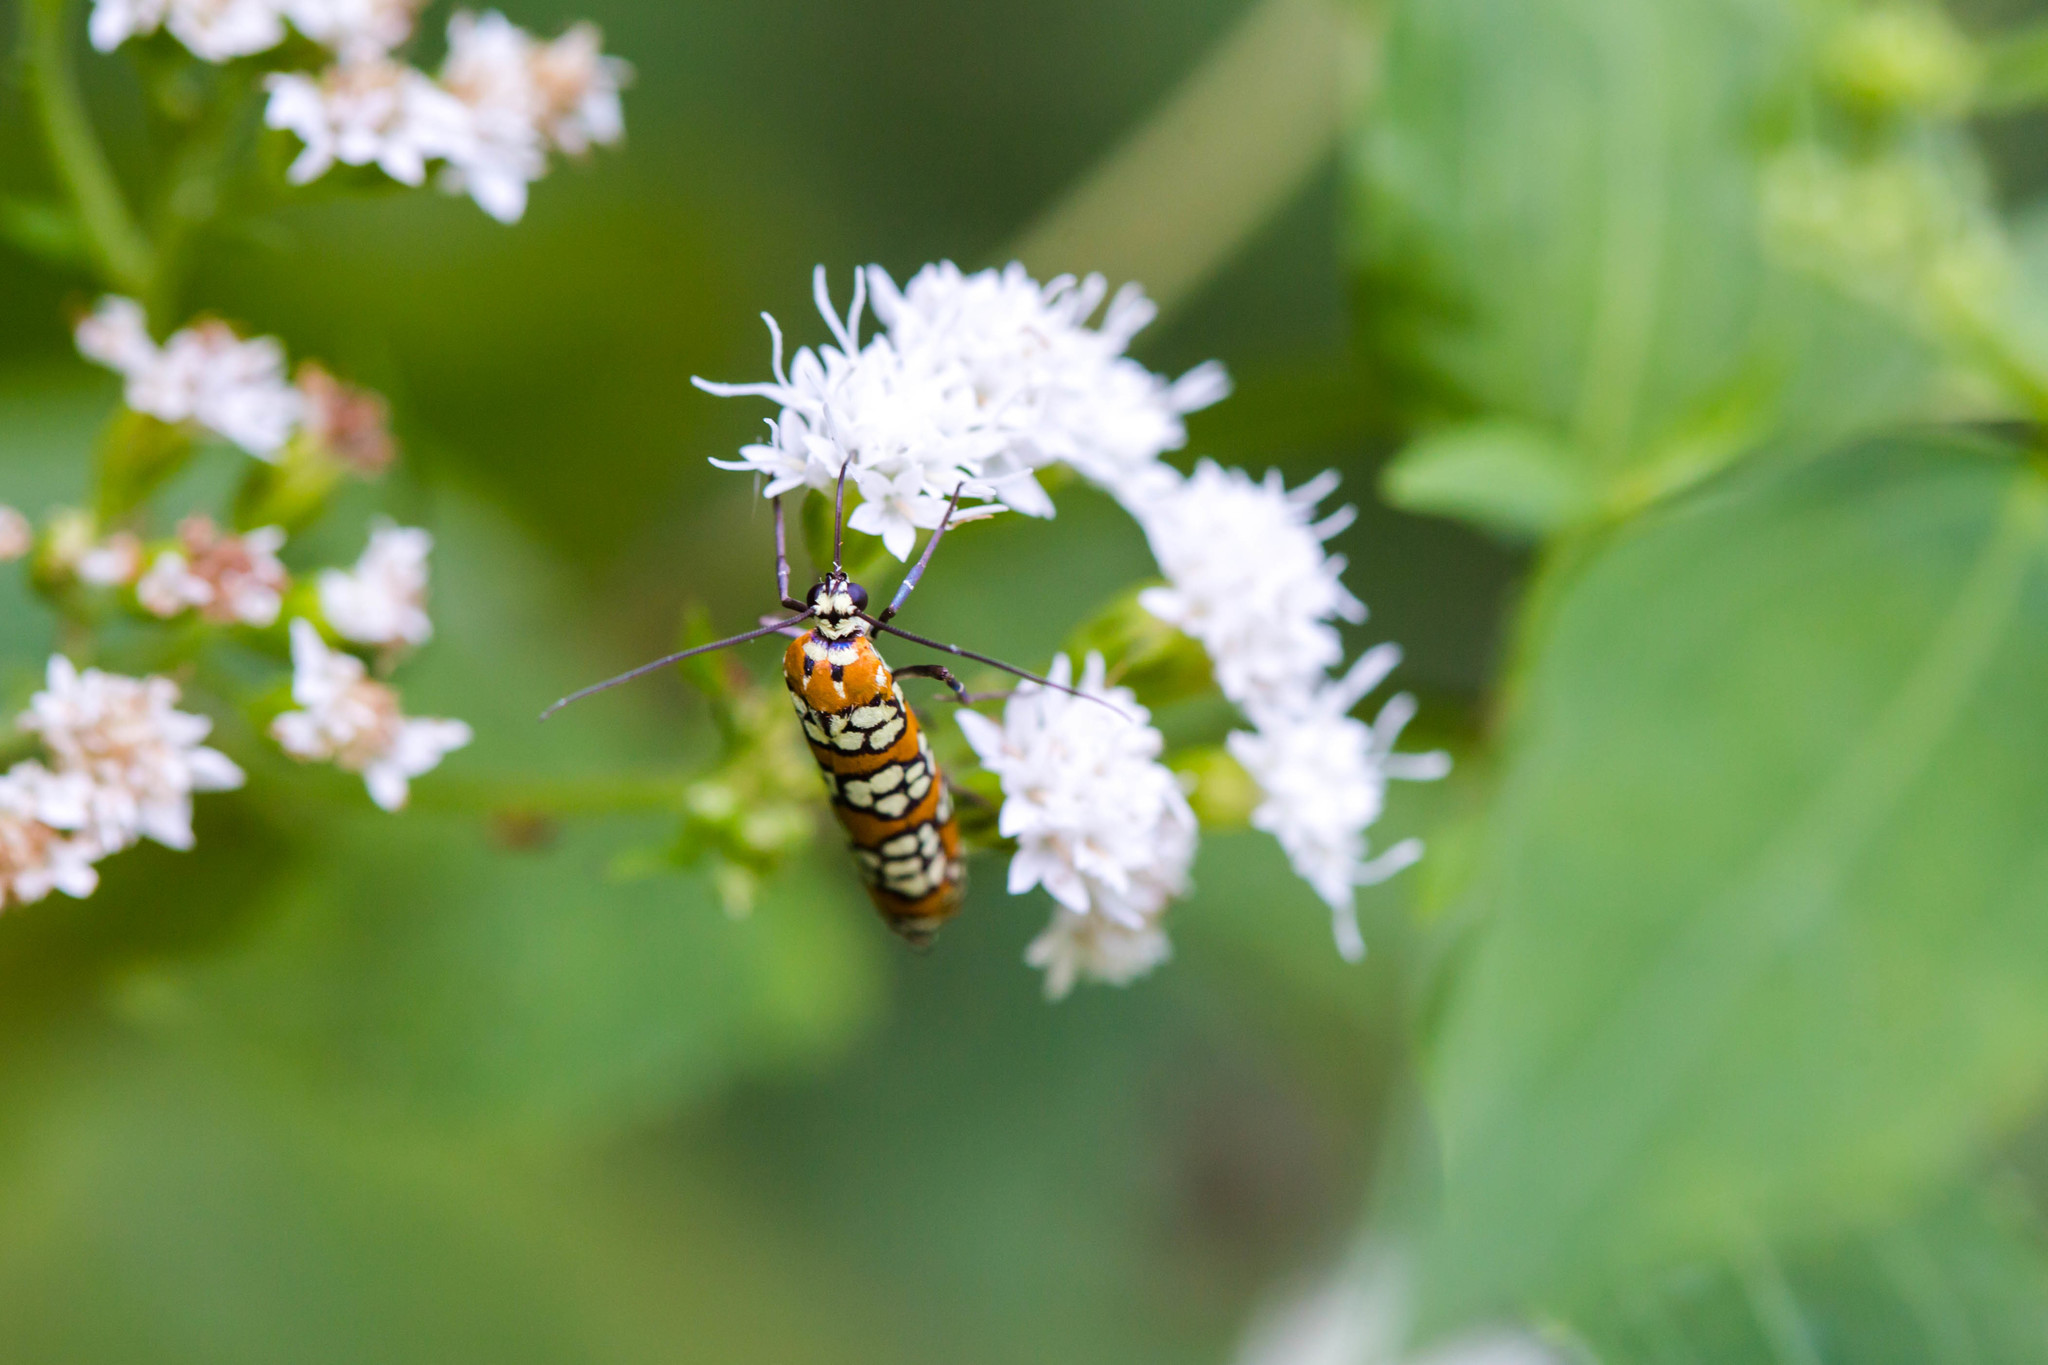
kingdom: Animalia
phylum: Arthropoda
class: Insecta
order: Lepidoptera
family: Attevidae
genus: Atteva
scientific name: Atteva punctella
